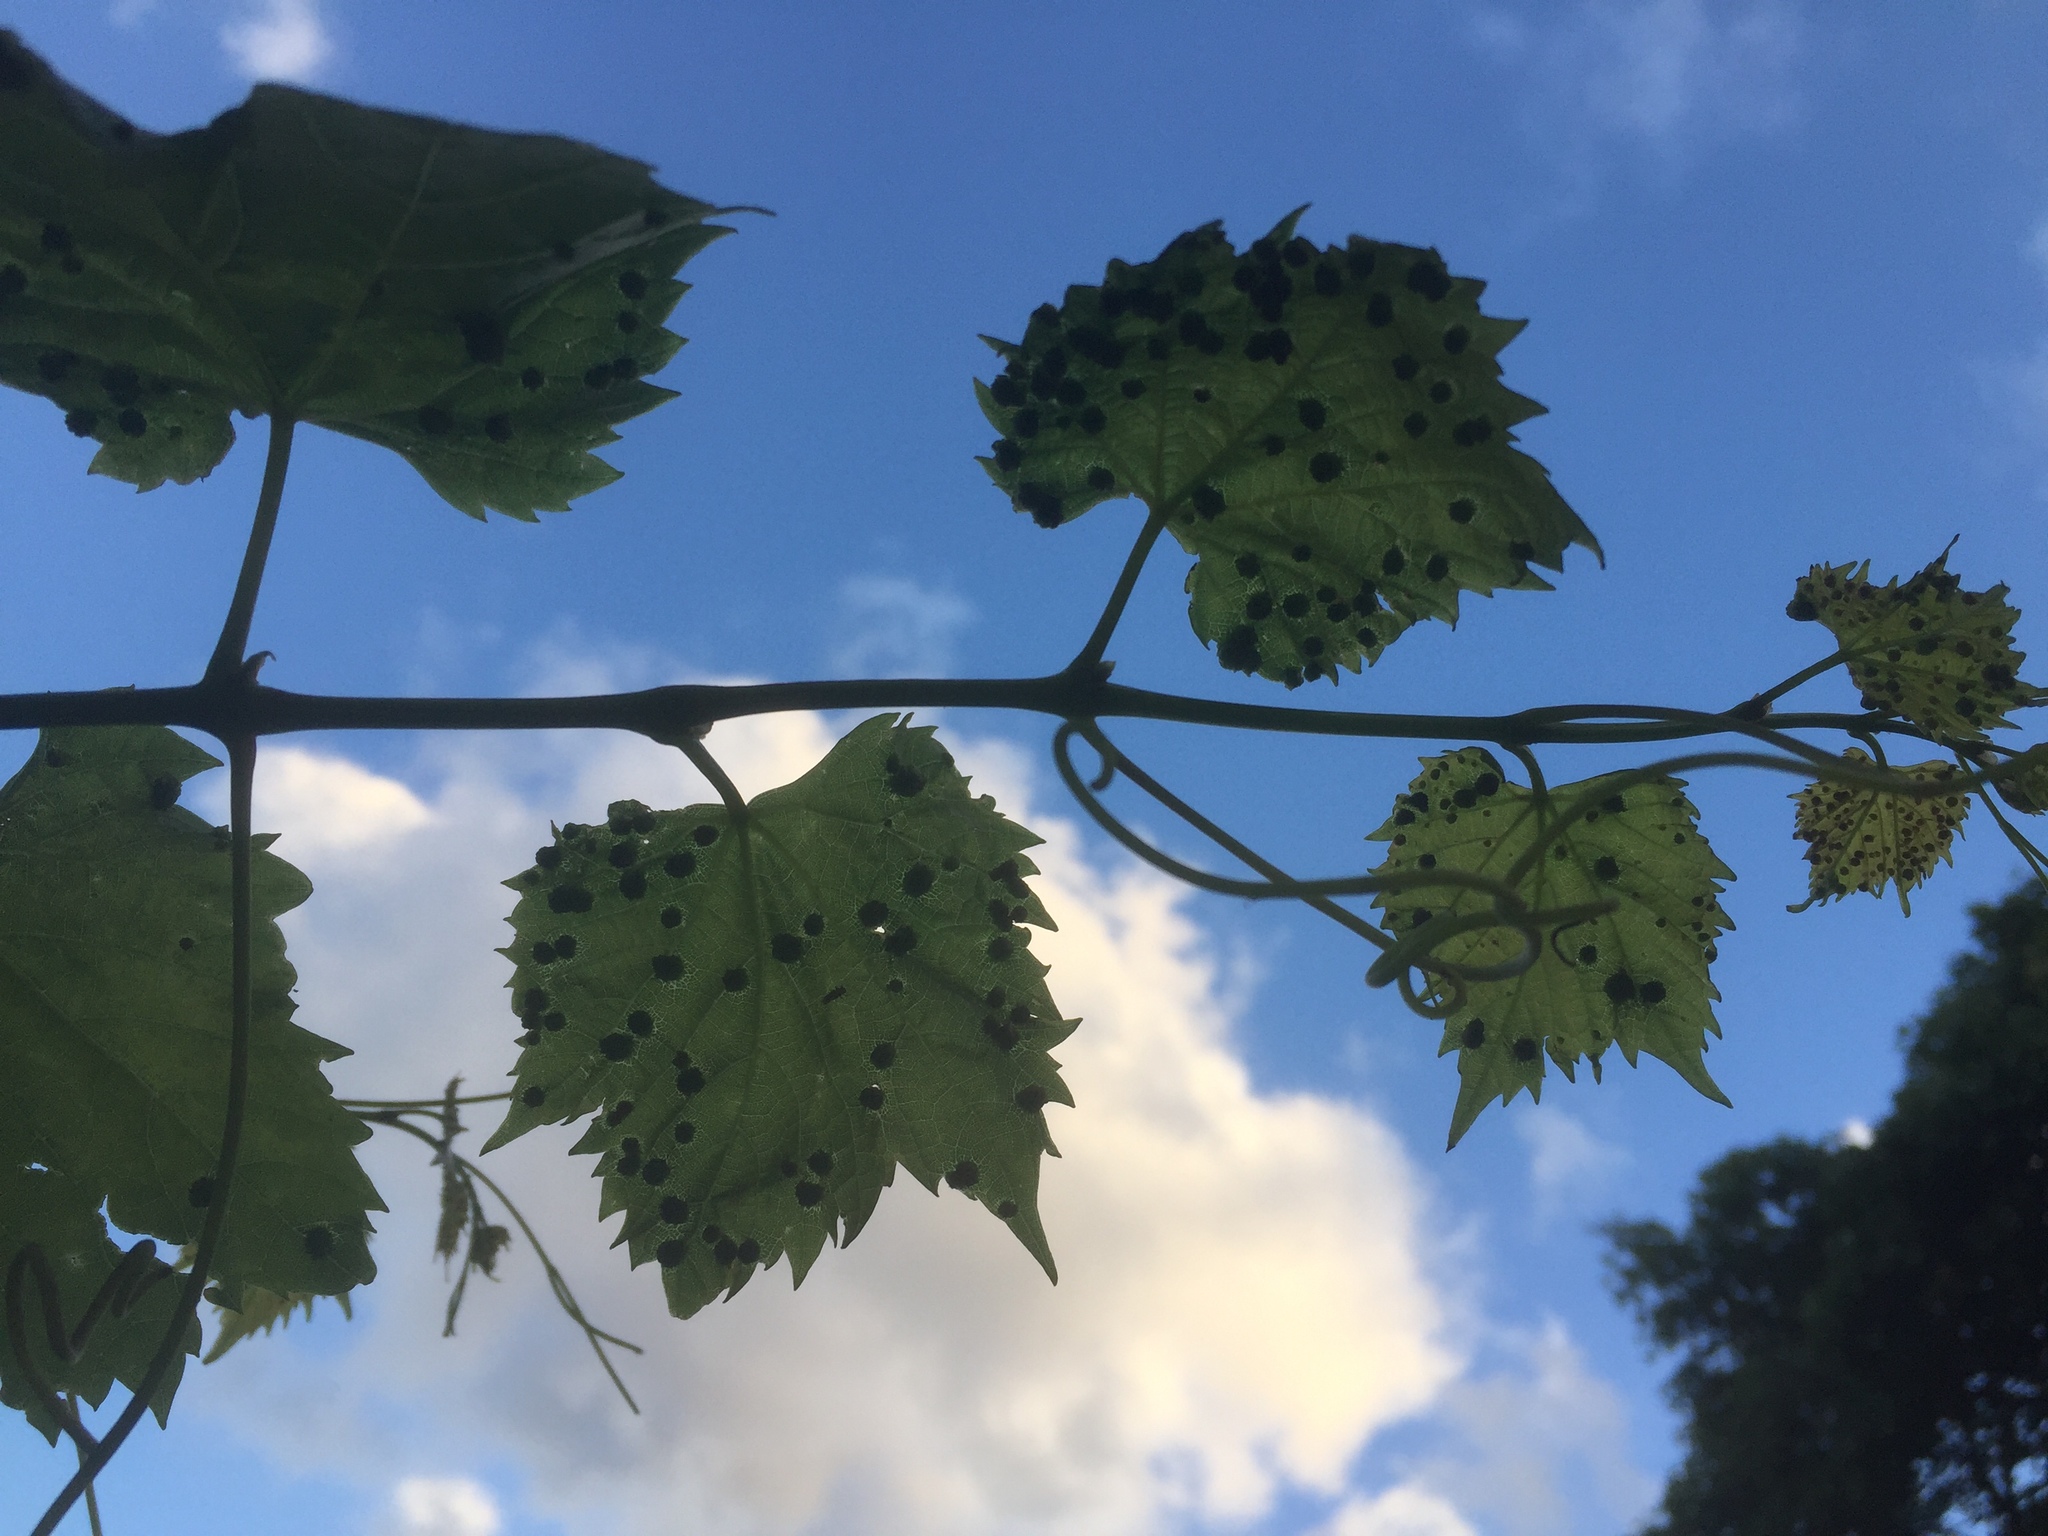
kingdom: Animalia
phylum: Arthropoda
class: Insecta
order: Hemiptera
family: Phylloxeridae
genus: Daktulosphaira
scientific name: Daktulosphaira vitifoliae
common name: Grape phylloxera
